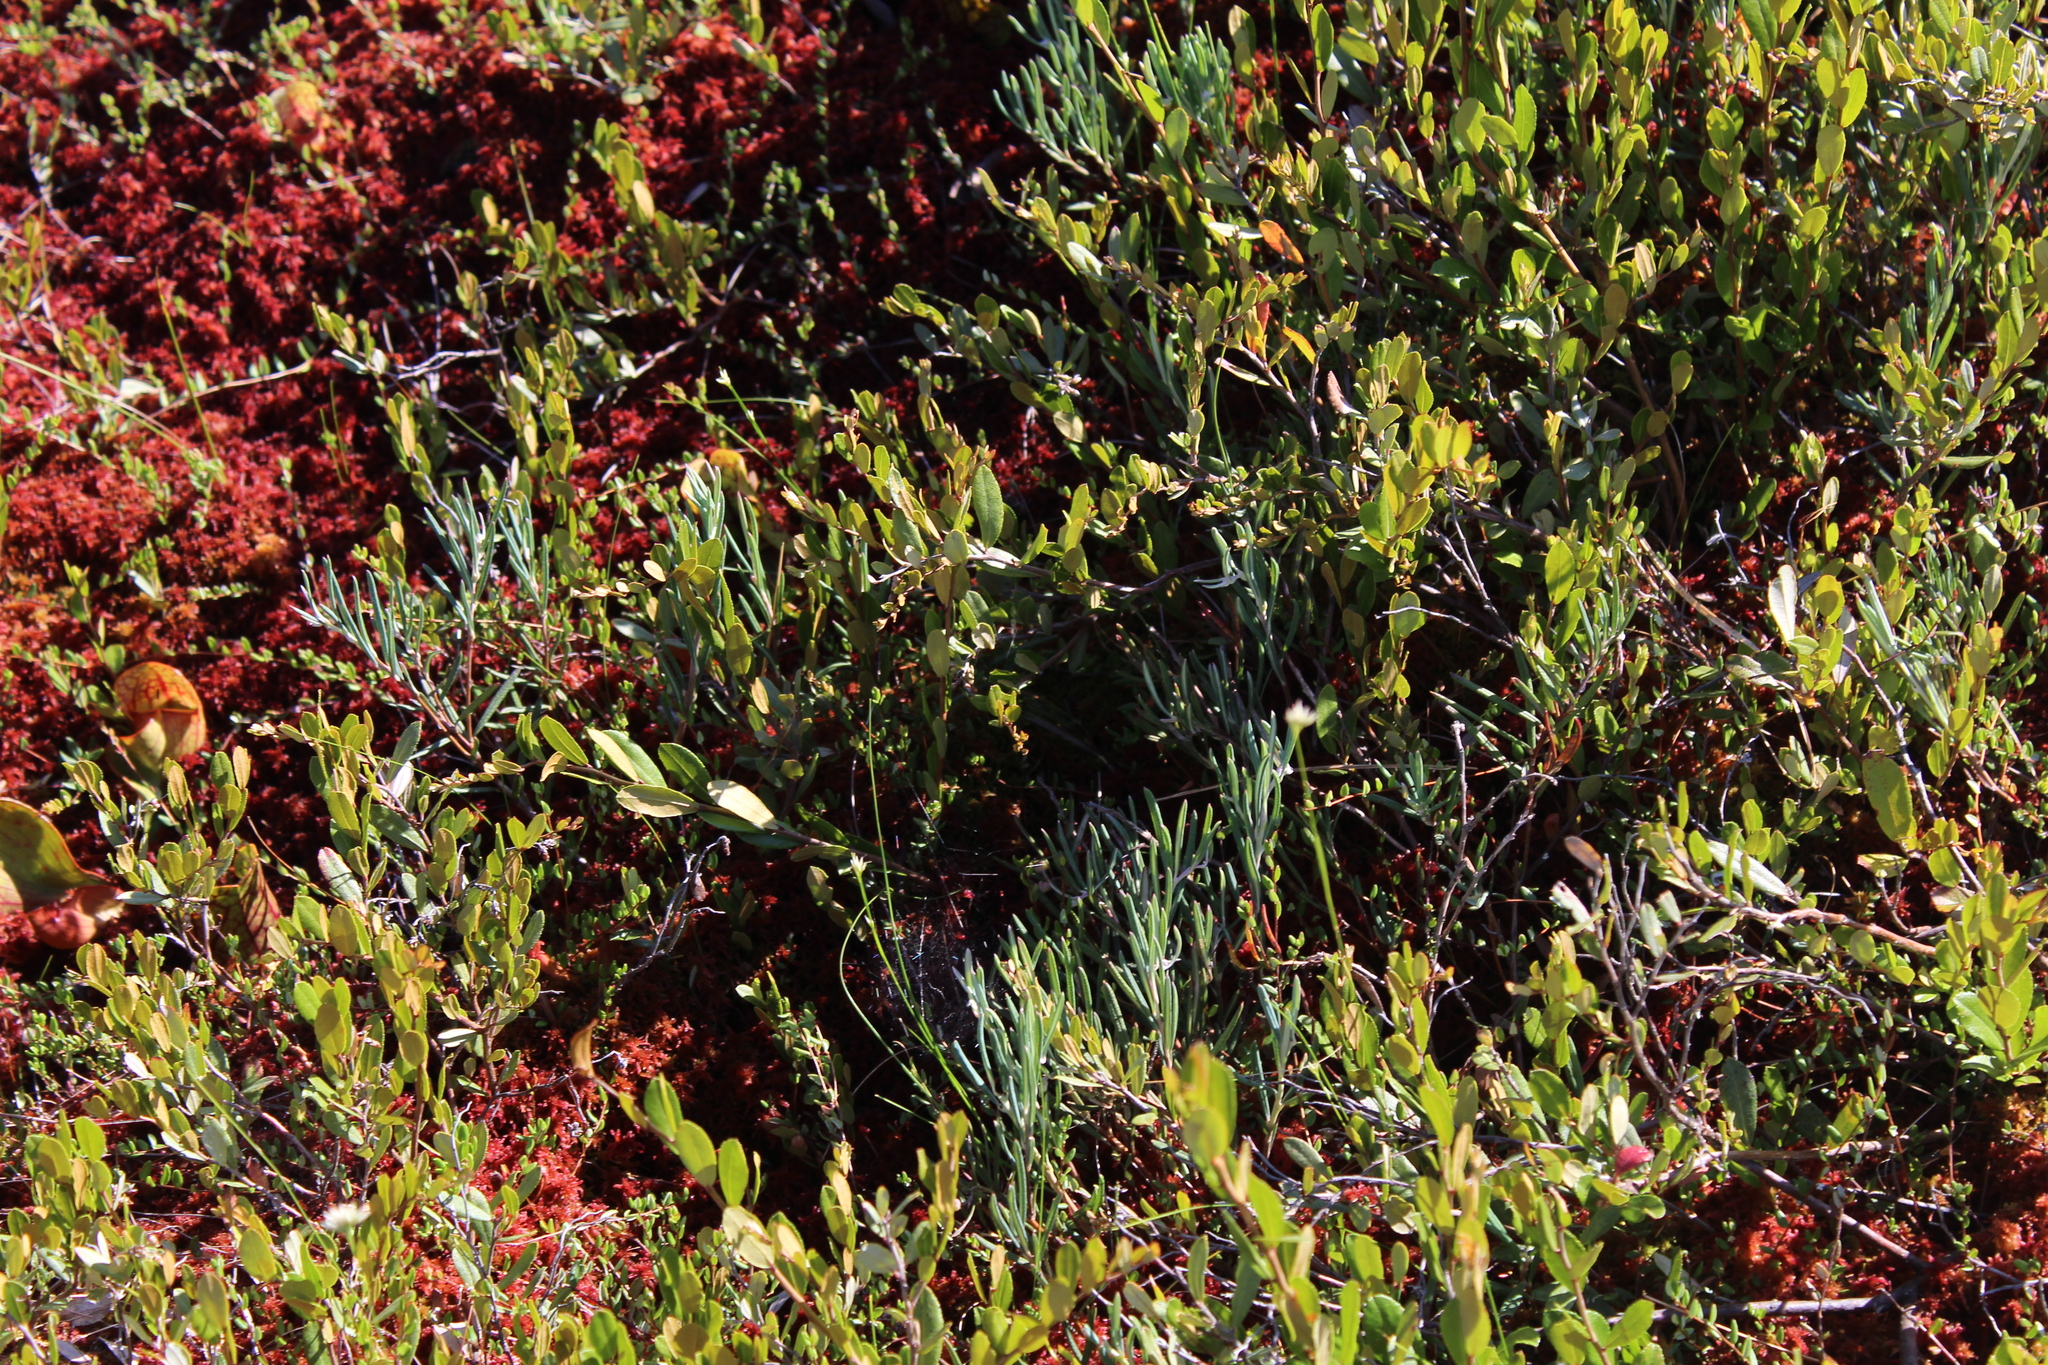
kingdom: Plantae
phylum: Tracheophyta
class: Magnoliopsida
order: Ericales
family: Ericaceae
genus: Andromeda
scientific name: Andromeda polifolia
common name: Bog-rosemary
